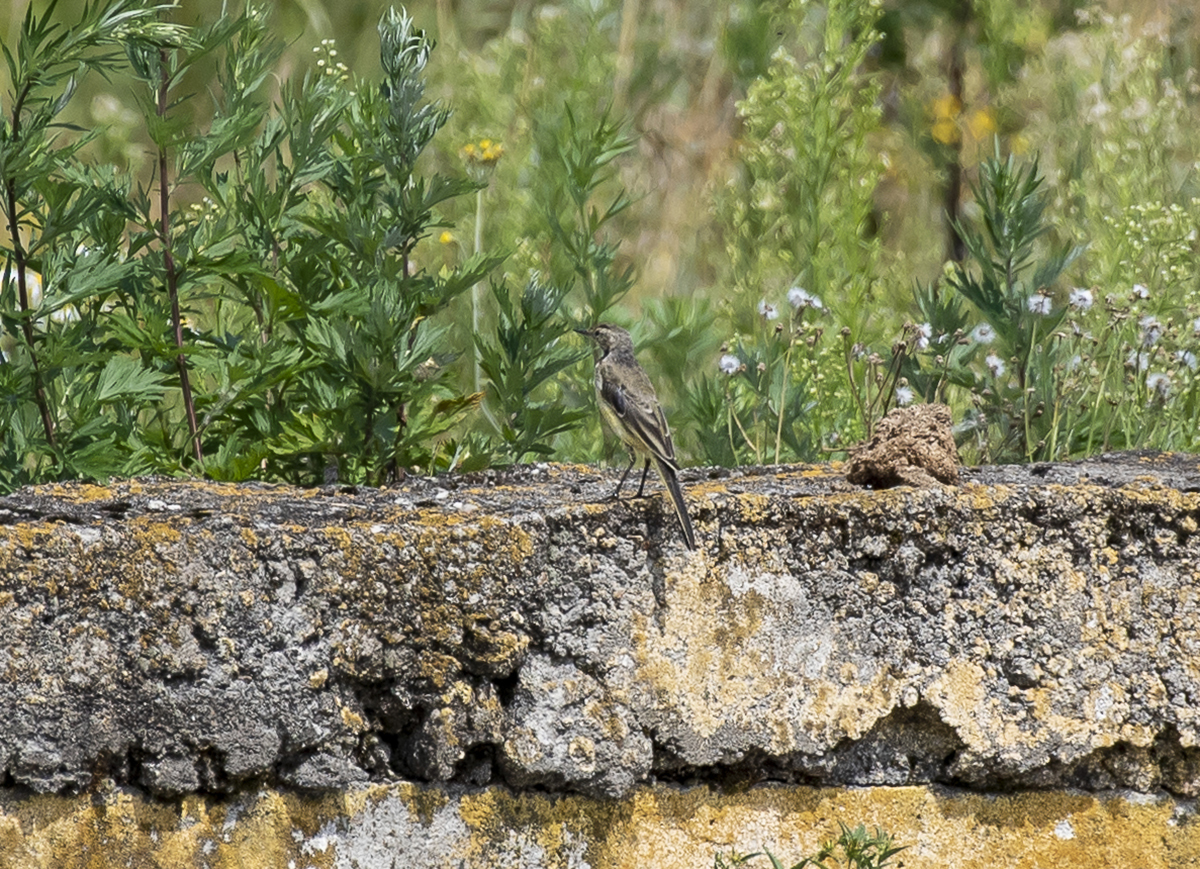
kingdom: Animalia
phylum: Chordata
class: Aves
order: Passeriformes
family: Motacillidae
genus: Motacilla
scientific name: Motacilla flava
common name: Western yellow wagtail
